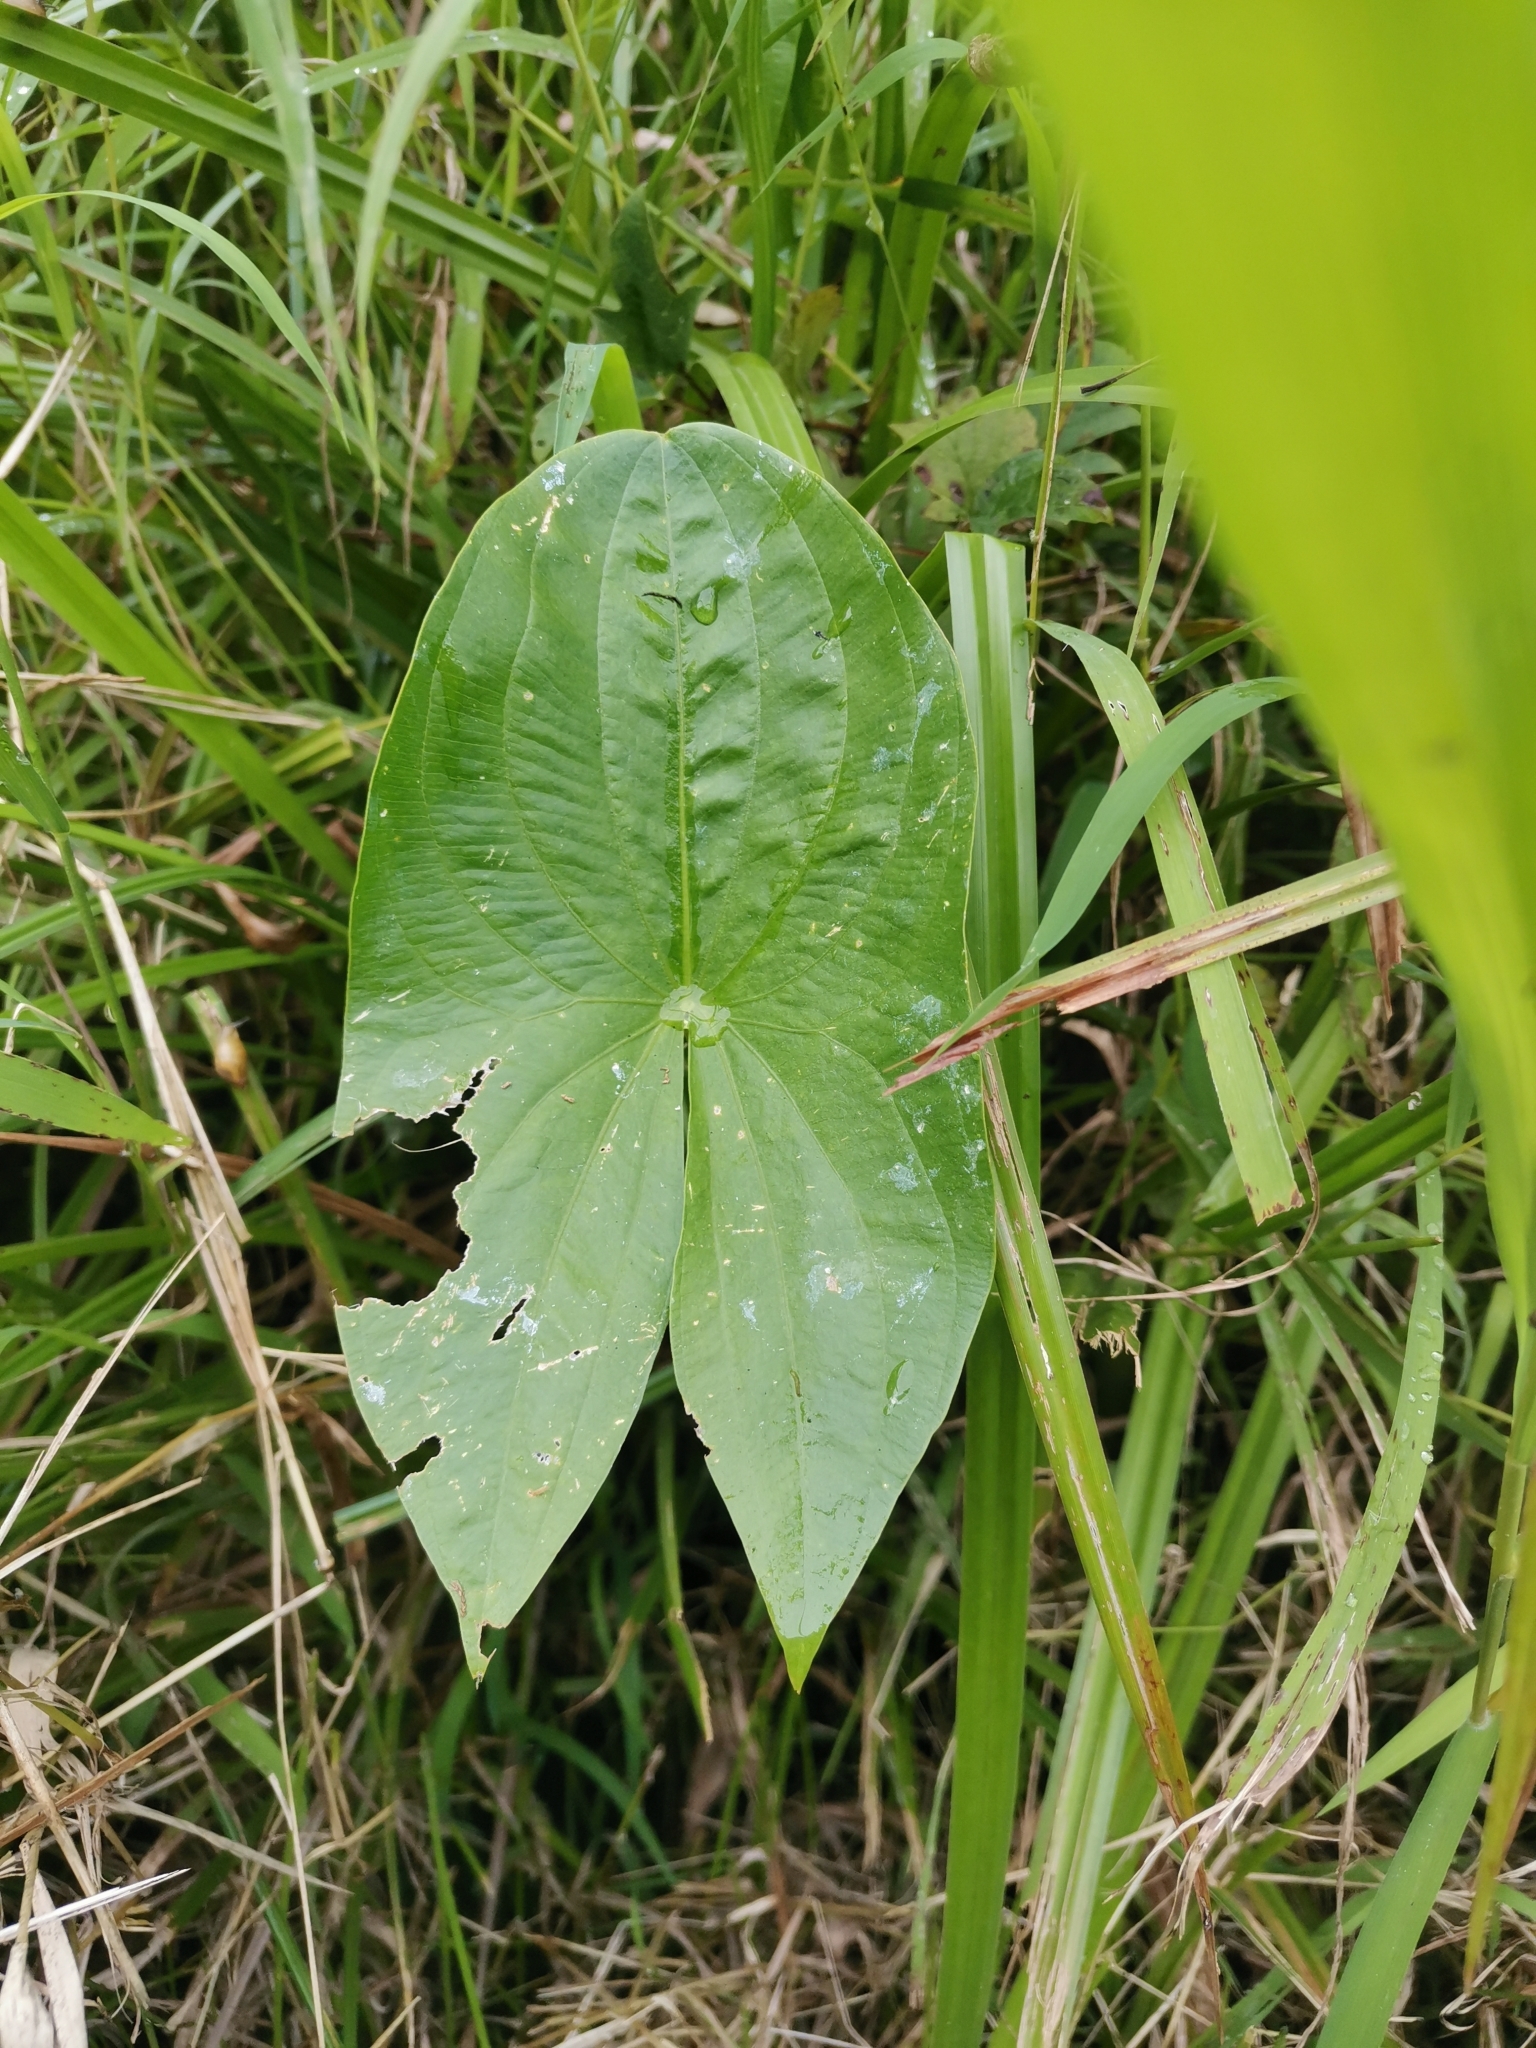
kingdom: Plantae
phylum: Tracheophyta
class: Liliopsida
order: Alismatales
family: Alismataceae
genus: Sagittaria
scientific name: Sagittaria latifolia
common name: Duck-potato
